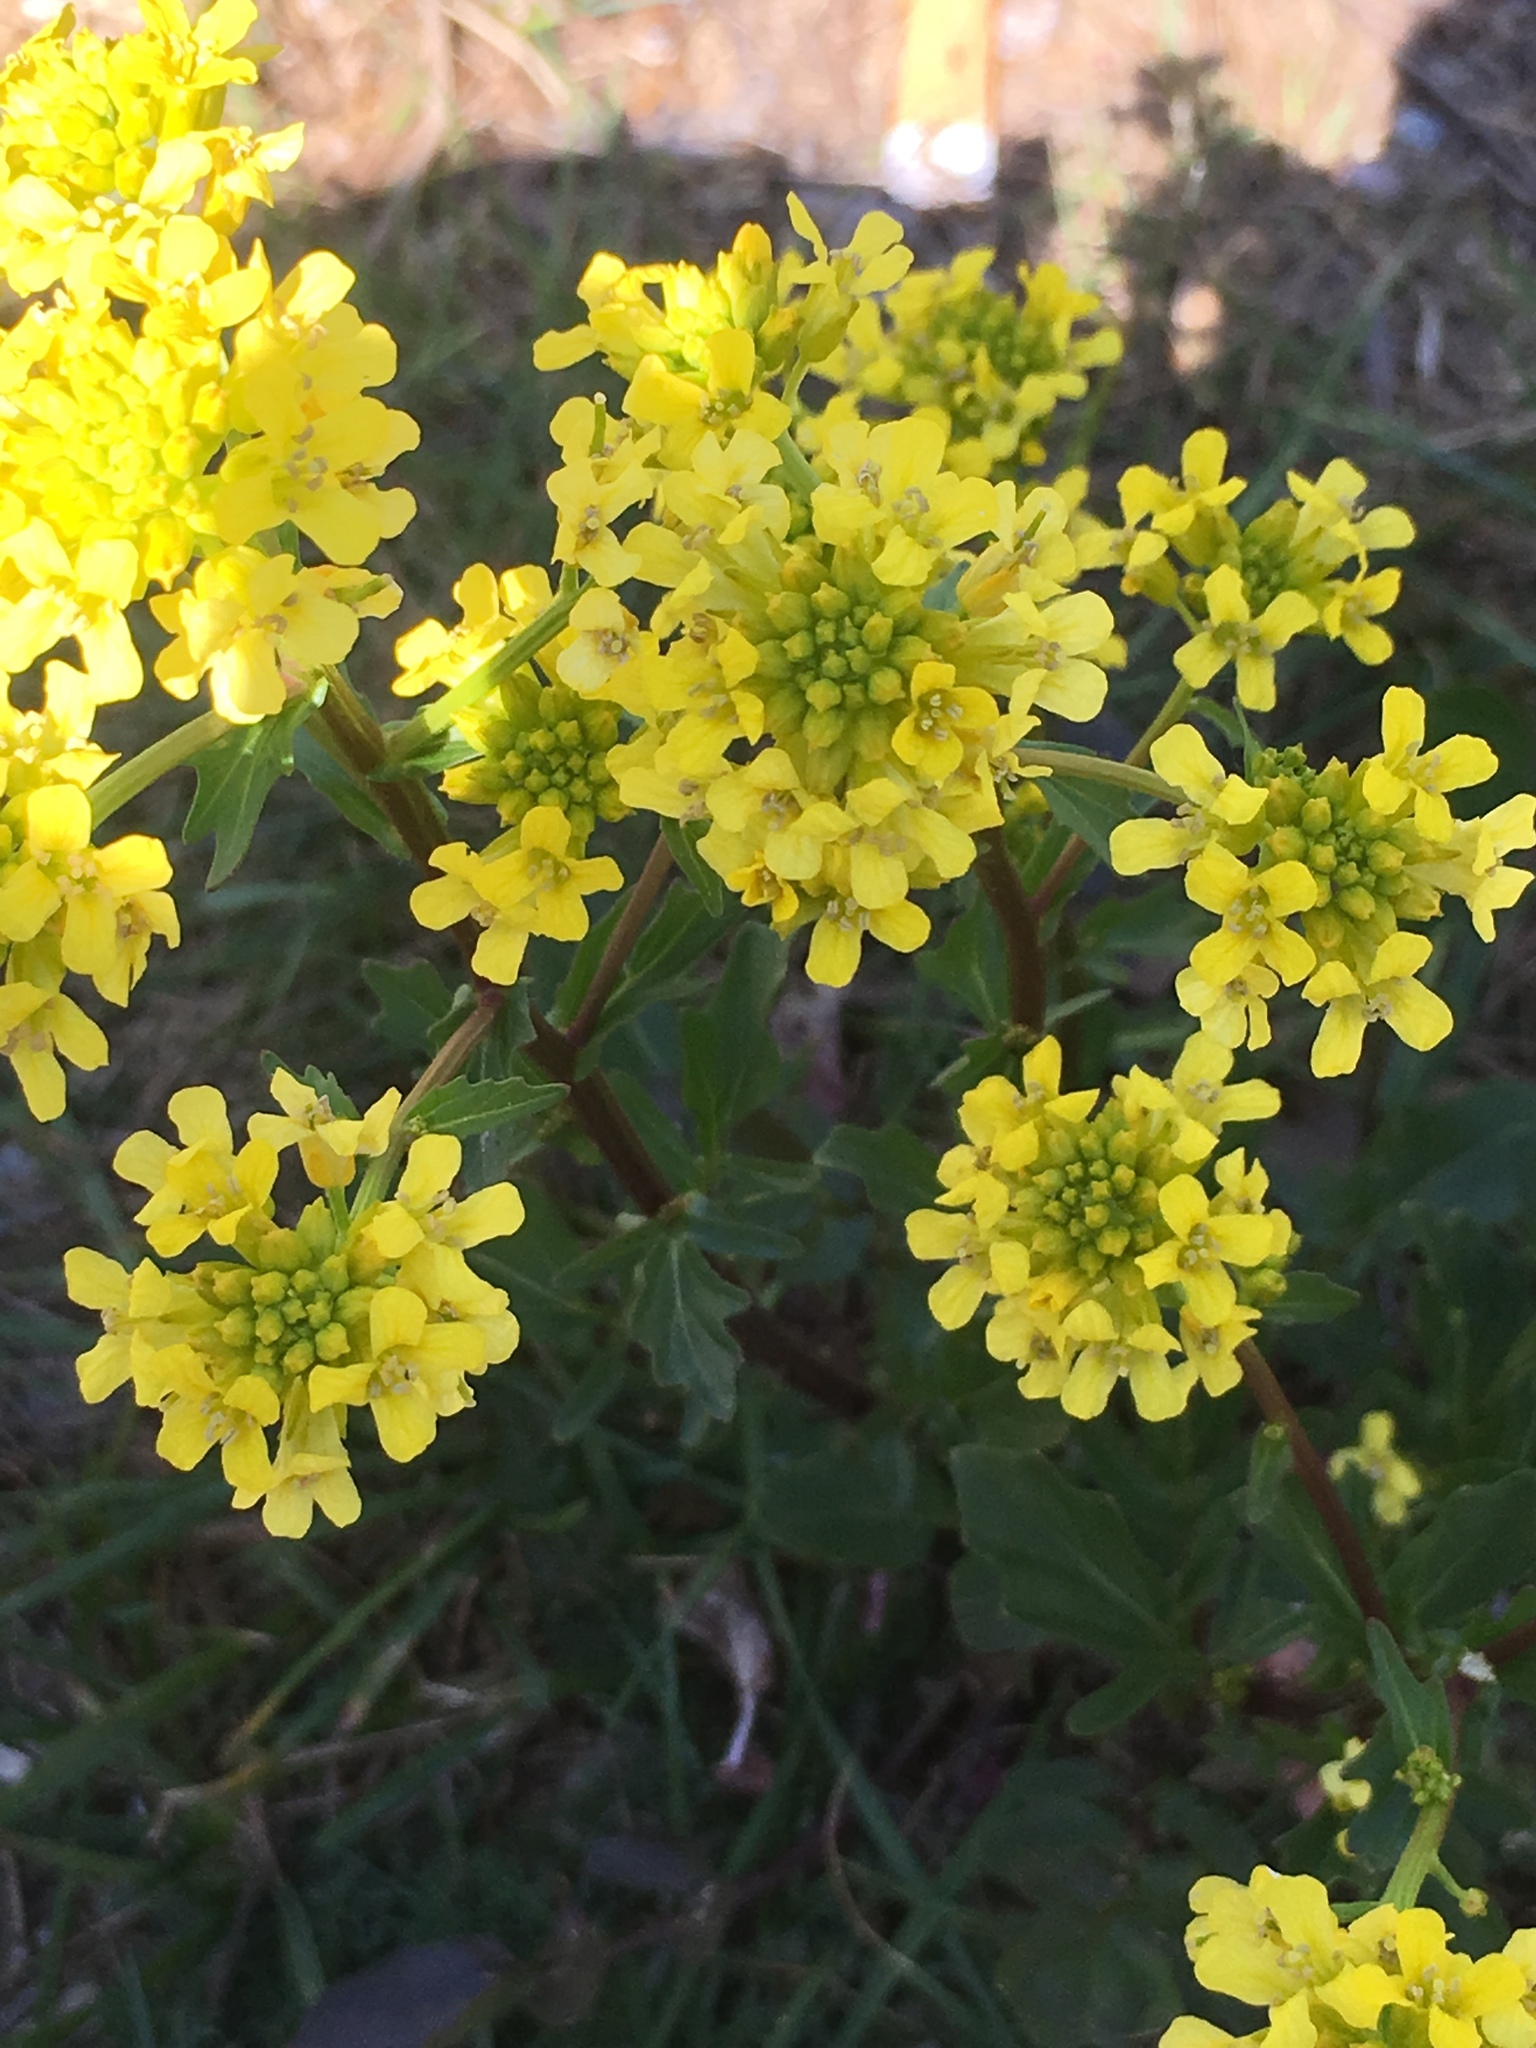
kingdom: Plantae
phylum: Tracheophyta
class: Magnoliopsida
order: Brassicales
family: Brassicaceae
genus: Barbarea
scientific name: Barbarea vulgaris
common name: Cressy-greens
